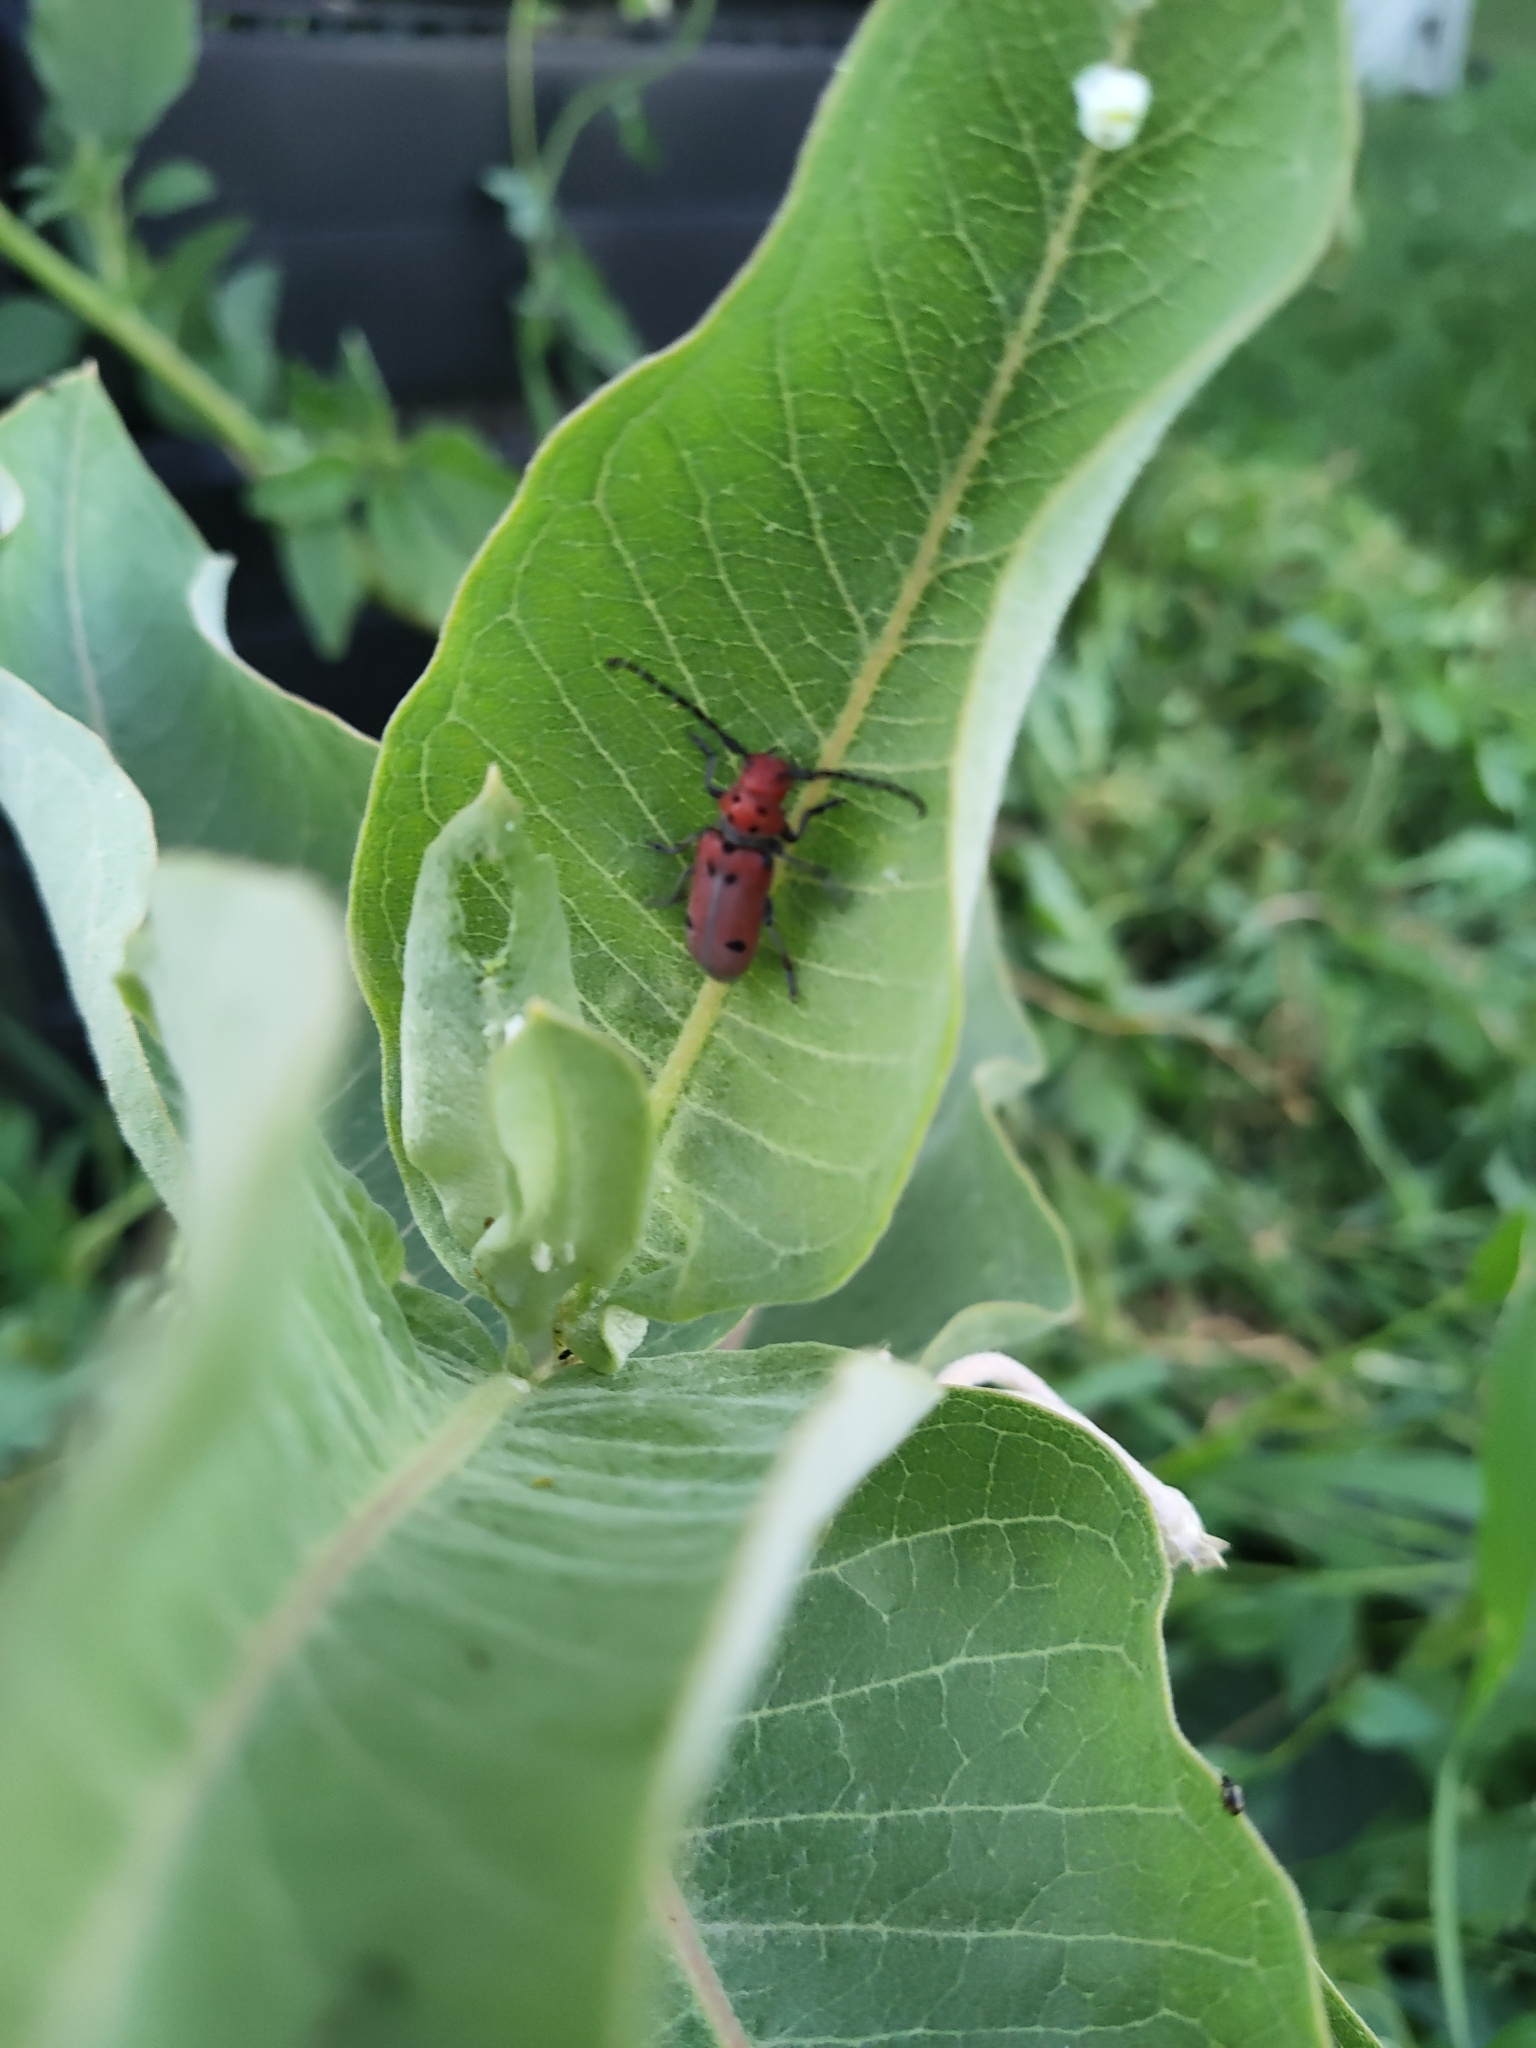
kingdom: Animalia
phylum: Arthropoda
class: Insecta
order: Coleoptera
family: Cerambycidae
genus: Tetraopes
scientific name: Tetraopes tetrophthalmus
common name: Red milkweed beetle
